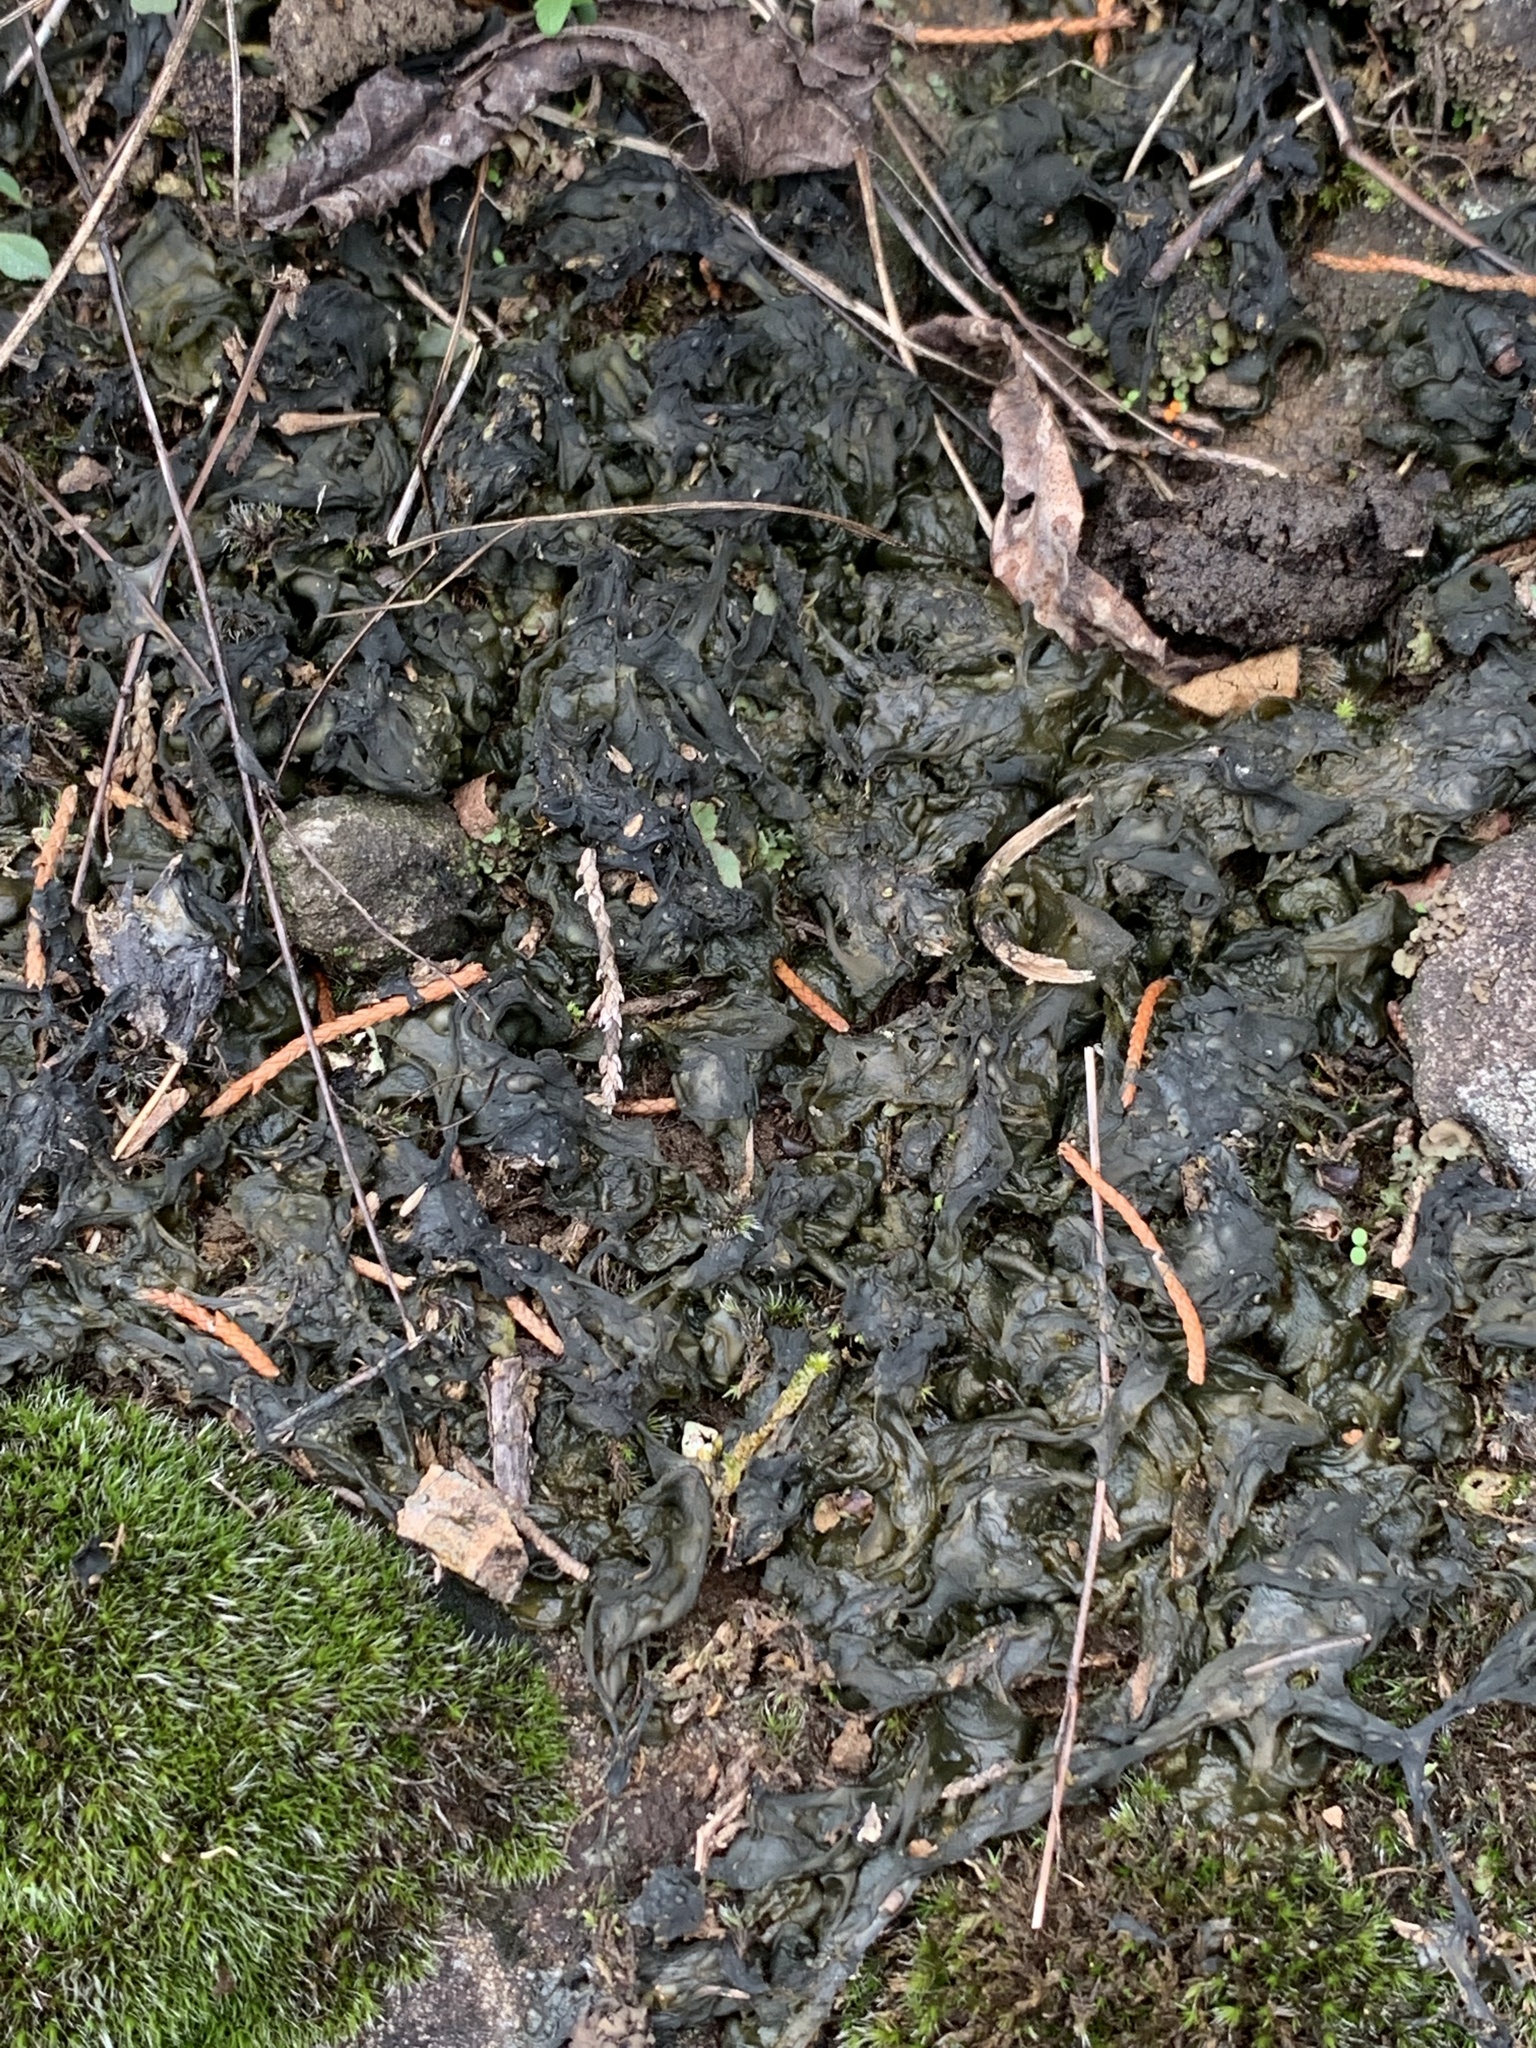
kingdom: Bacteria
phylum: Cyanobacteria
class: Cyanobacteriia
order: Cyanobacteriales
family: Nostocaceae
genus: Nostoc
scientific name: Nostoc commune
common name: Star jelly
